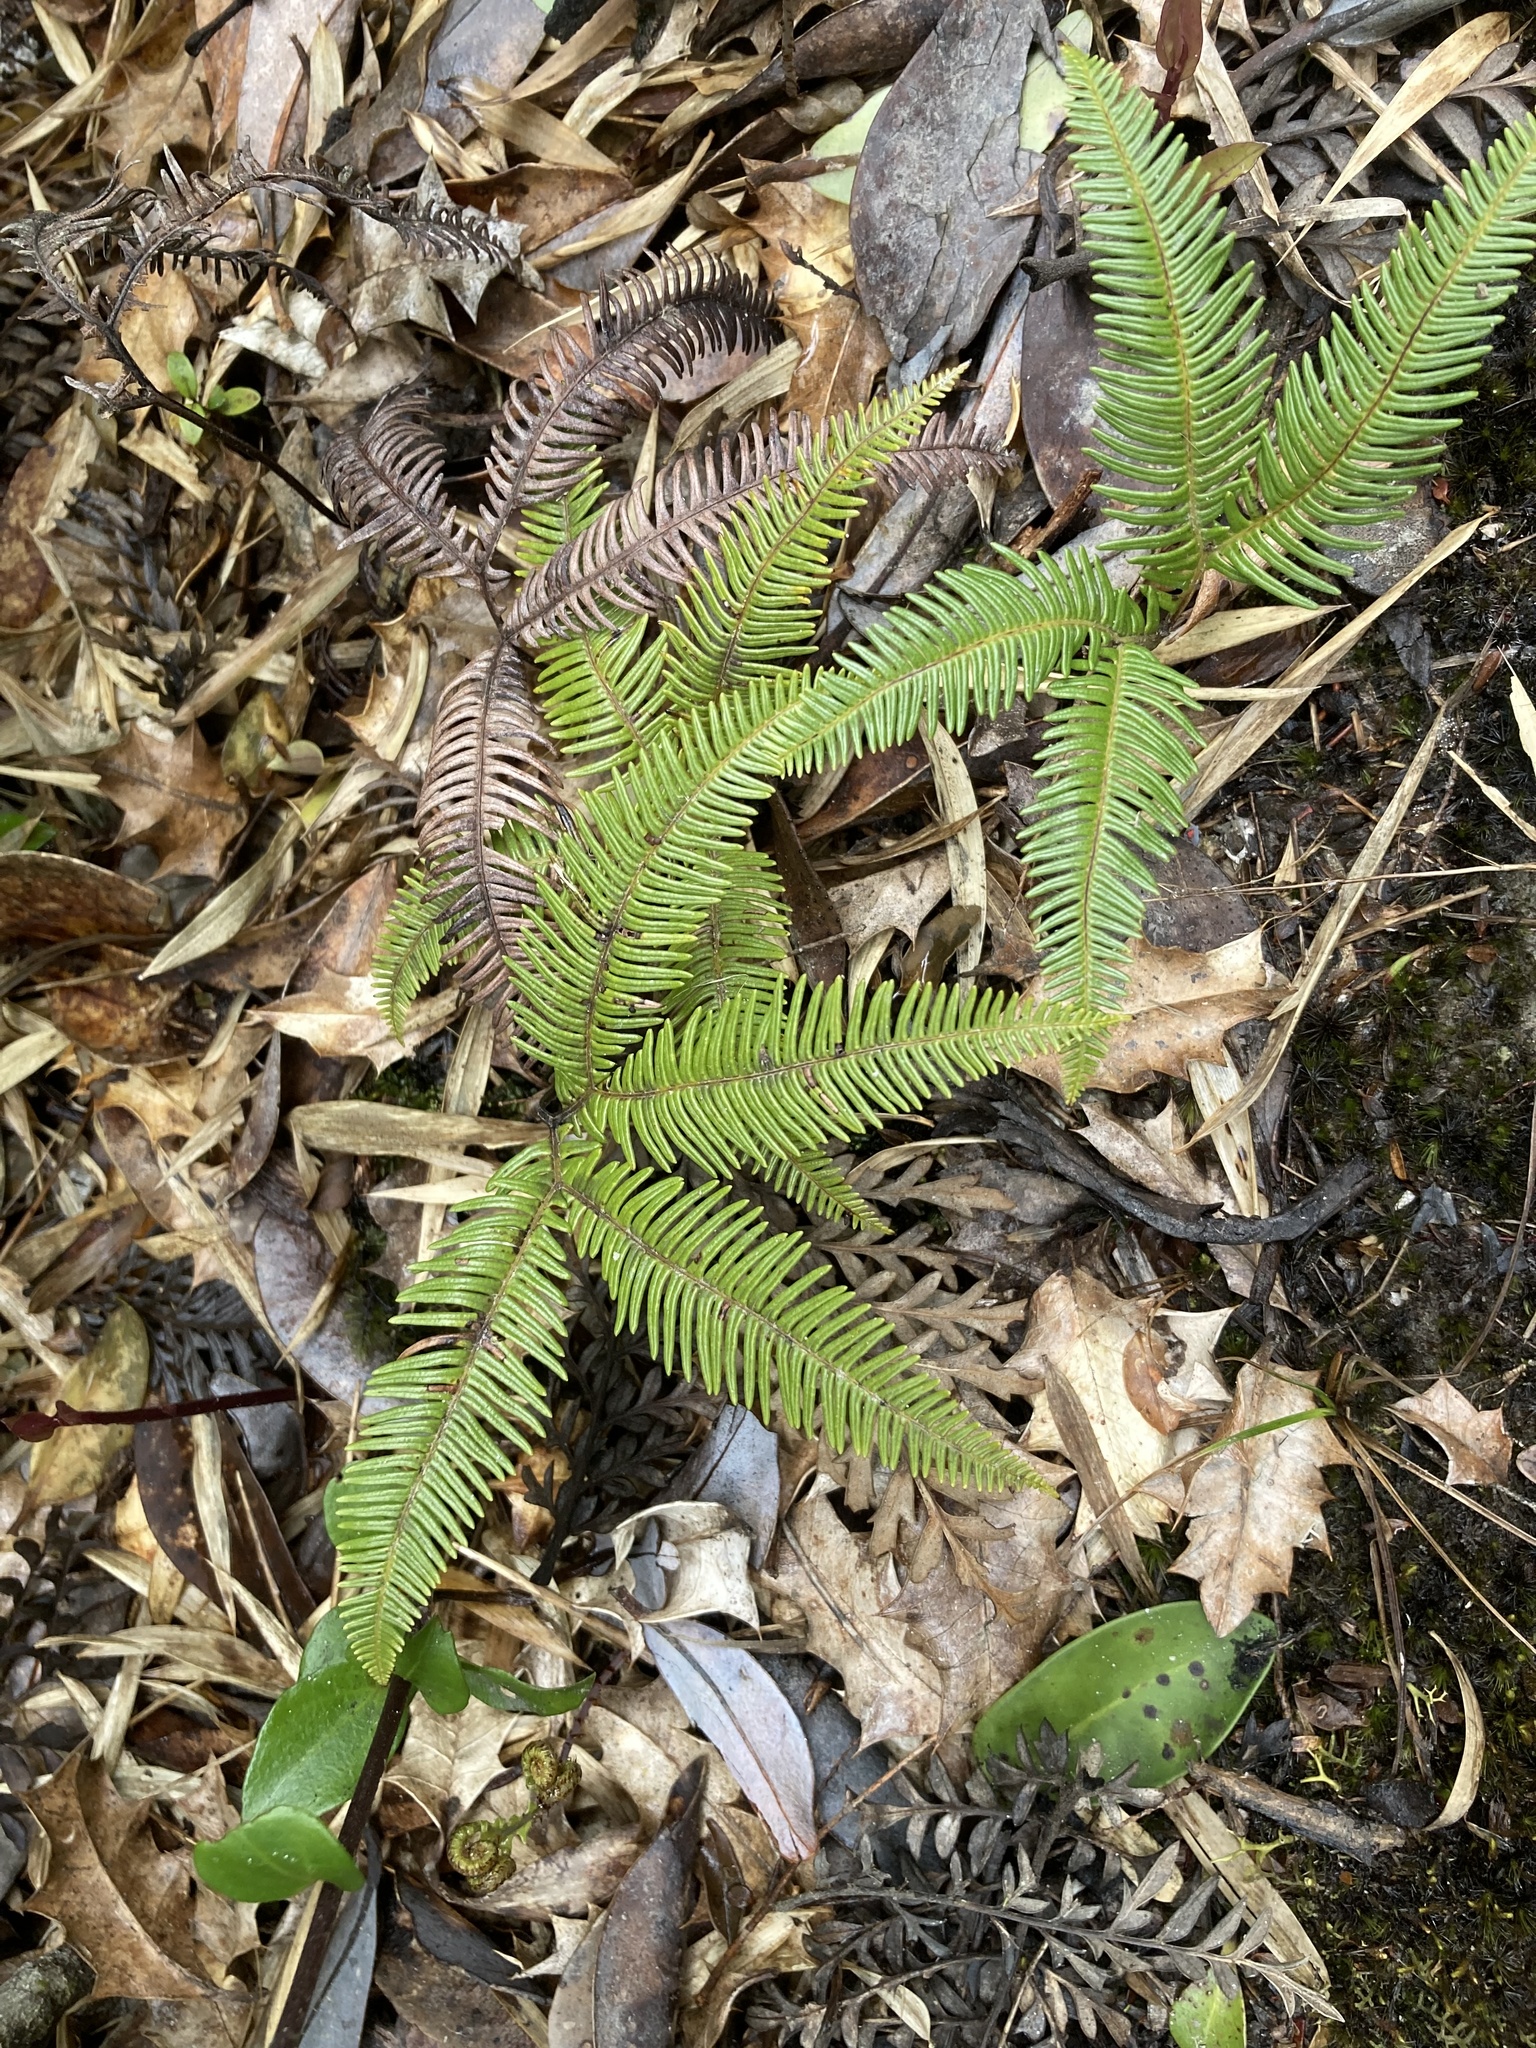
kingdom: Plantae
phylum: Tracheophyta
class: Polypodiopsida
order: Gleicheniales
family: Gleicheniaceae
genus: Sticherus
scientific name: Sticherus quadripartitus
